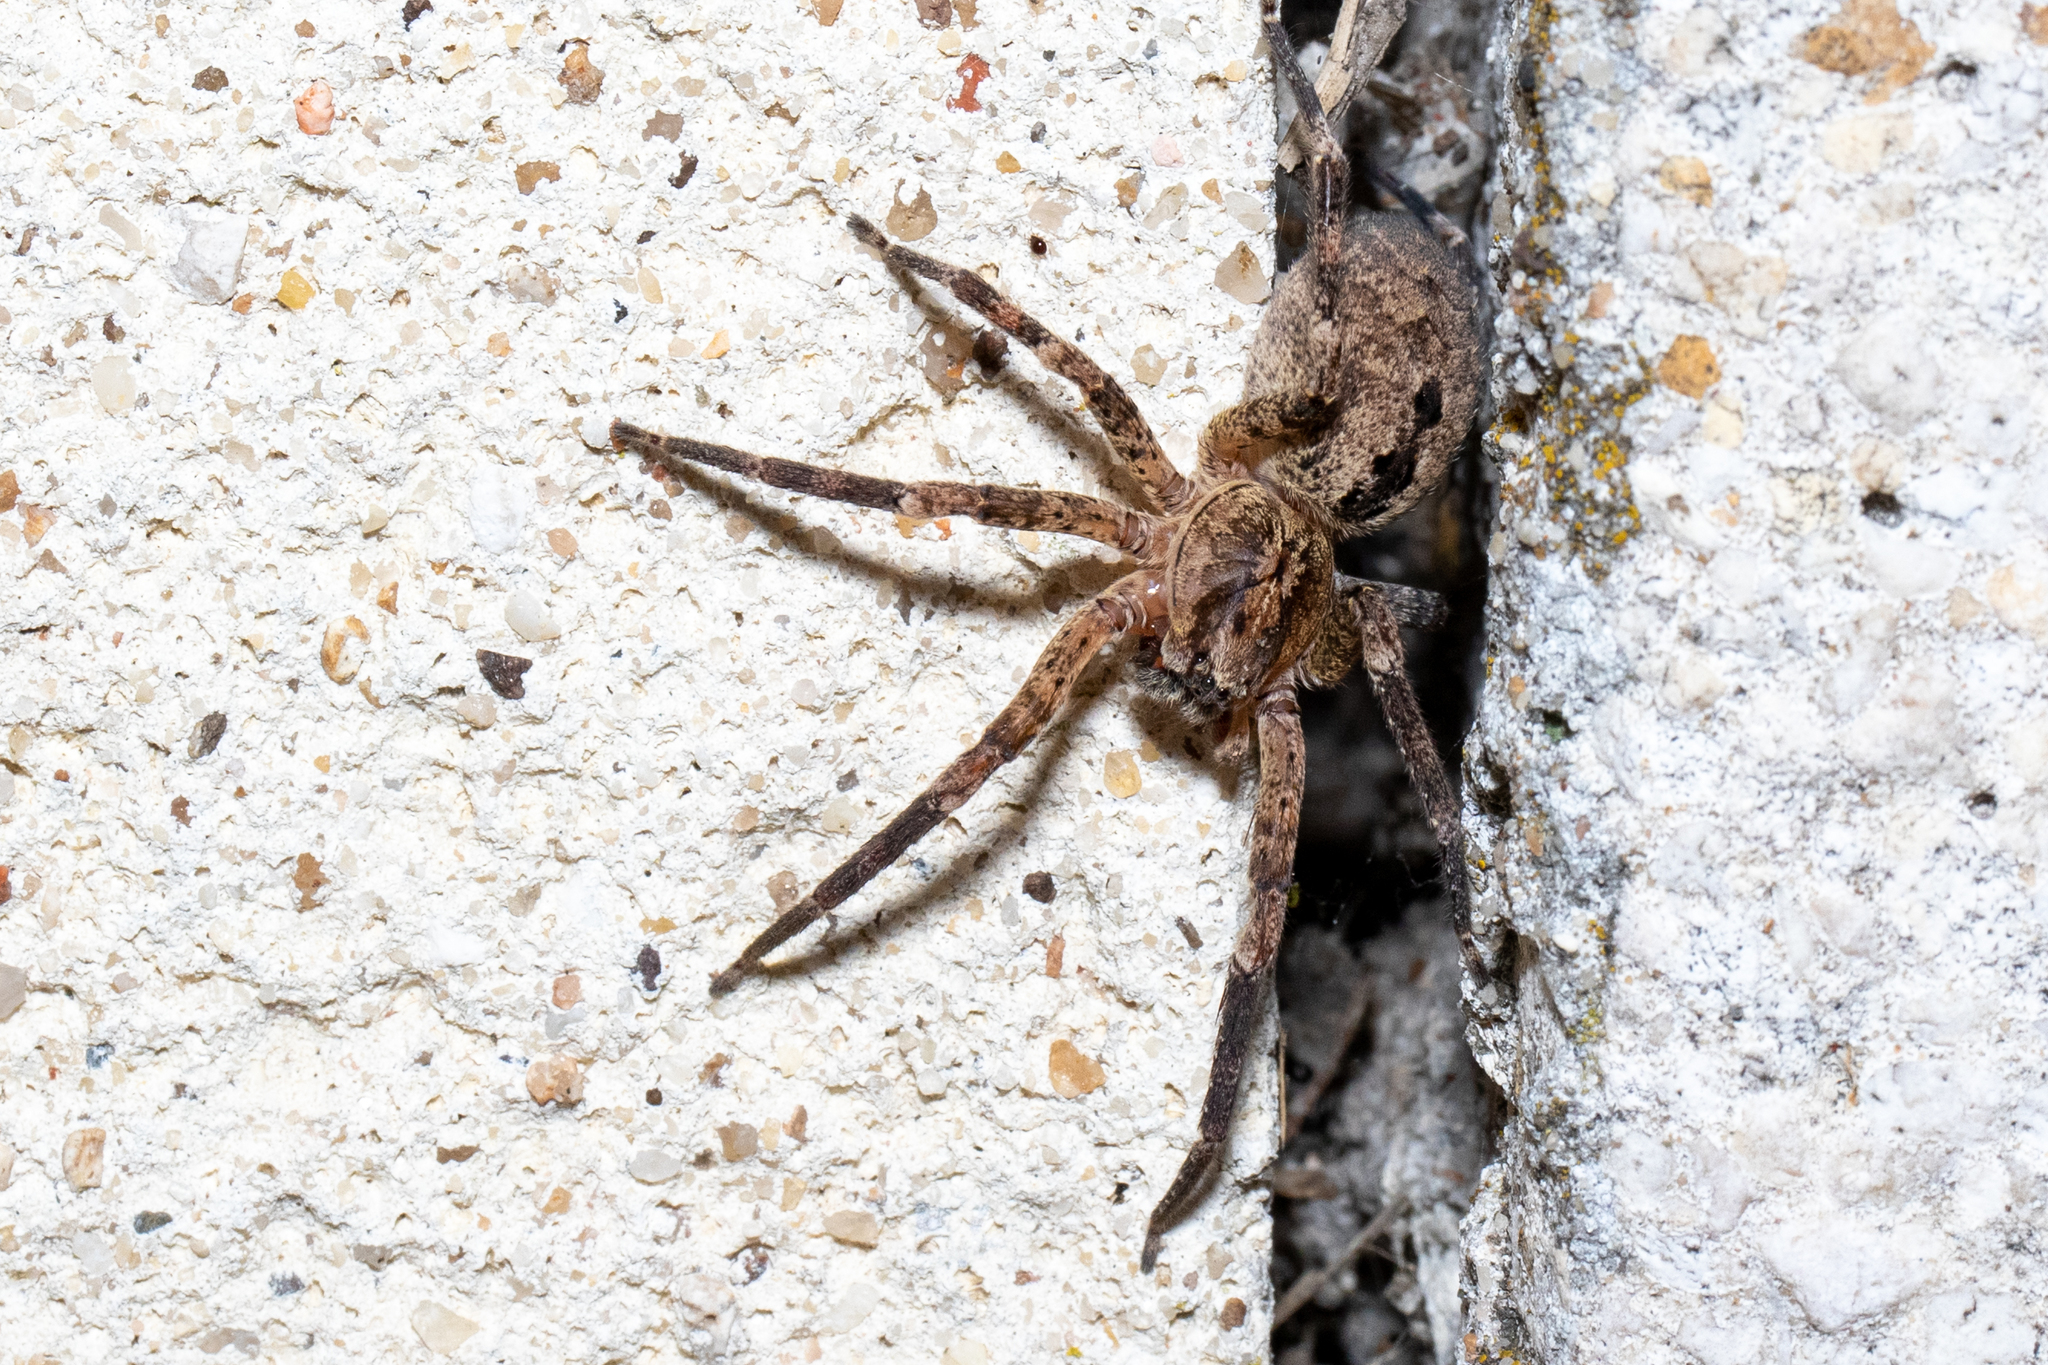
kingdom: Animalia
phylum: Arthropoda
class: Arachnida
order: Araneae
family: Zoropsidae
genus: Zoropsis
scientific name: Zoropsis spinimana
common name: Zoropsid spider
